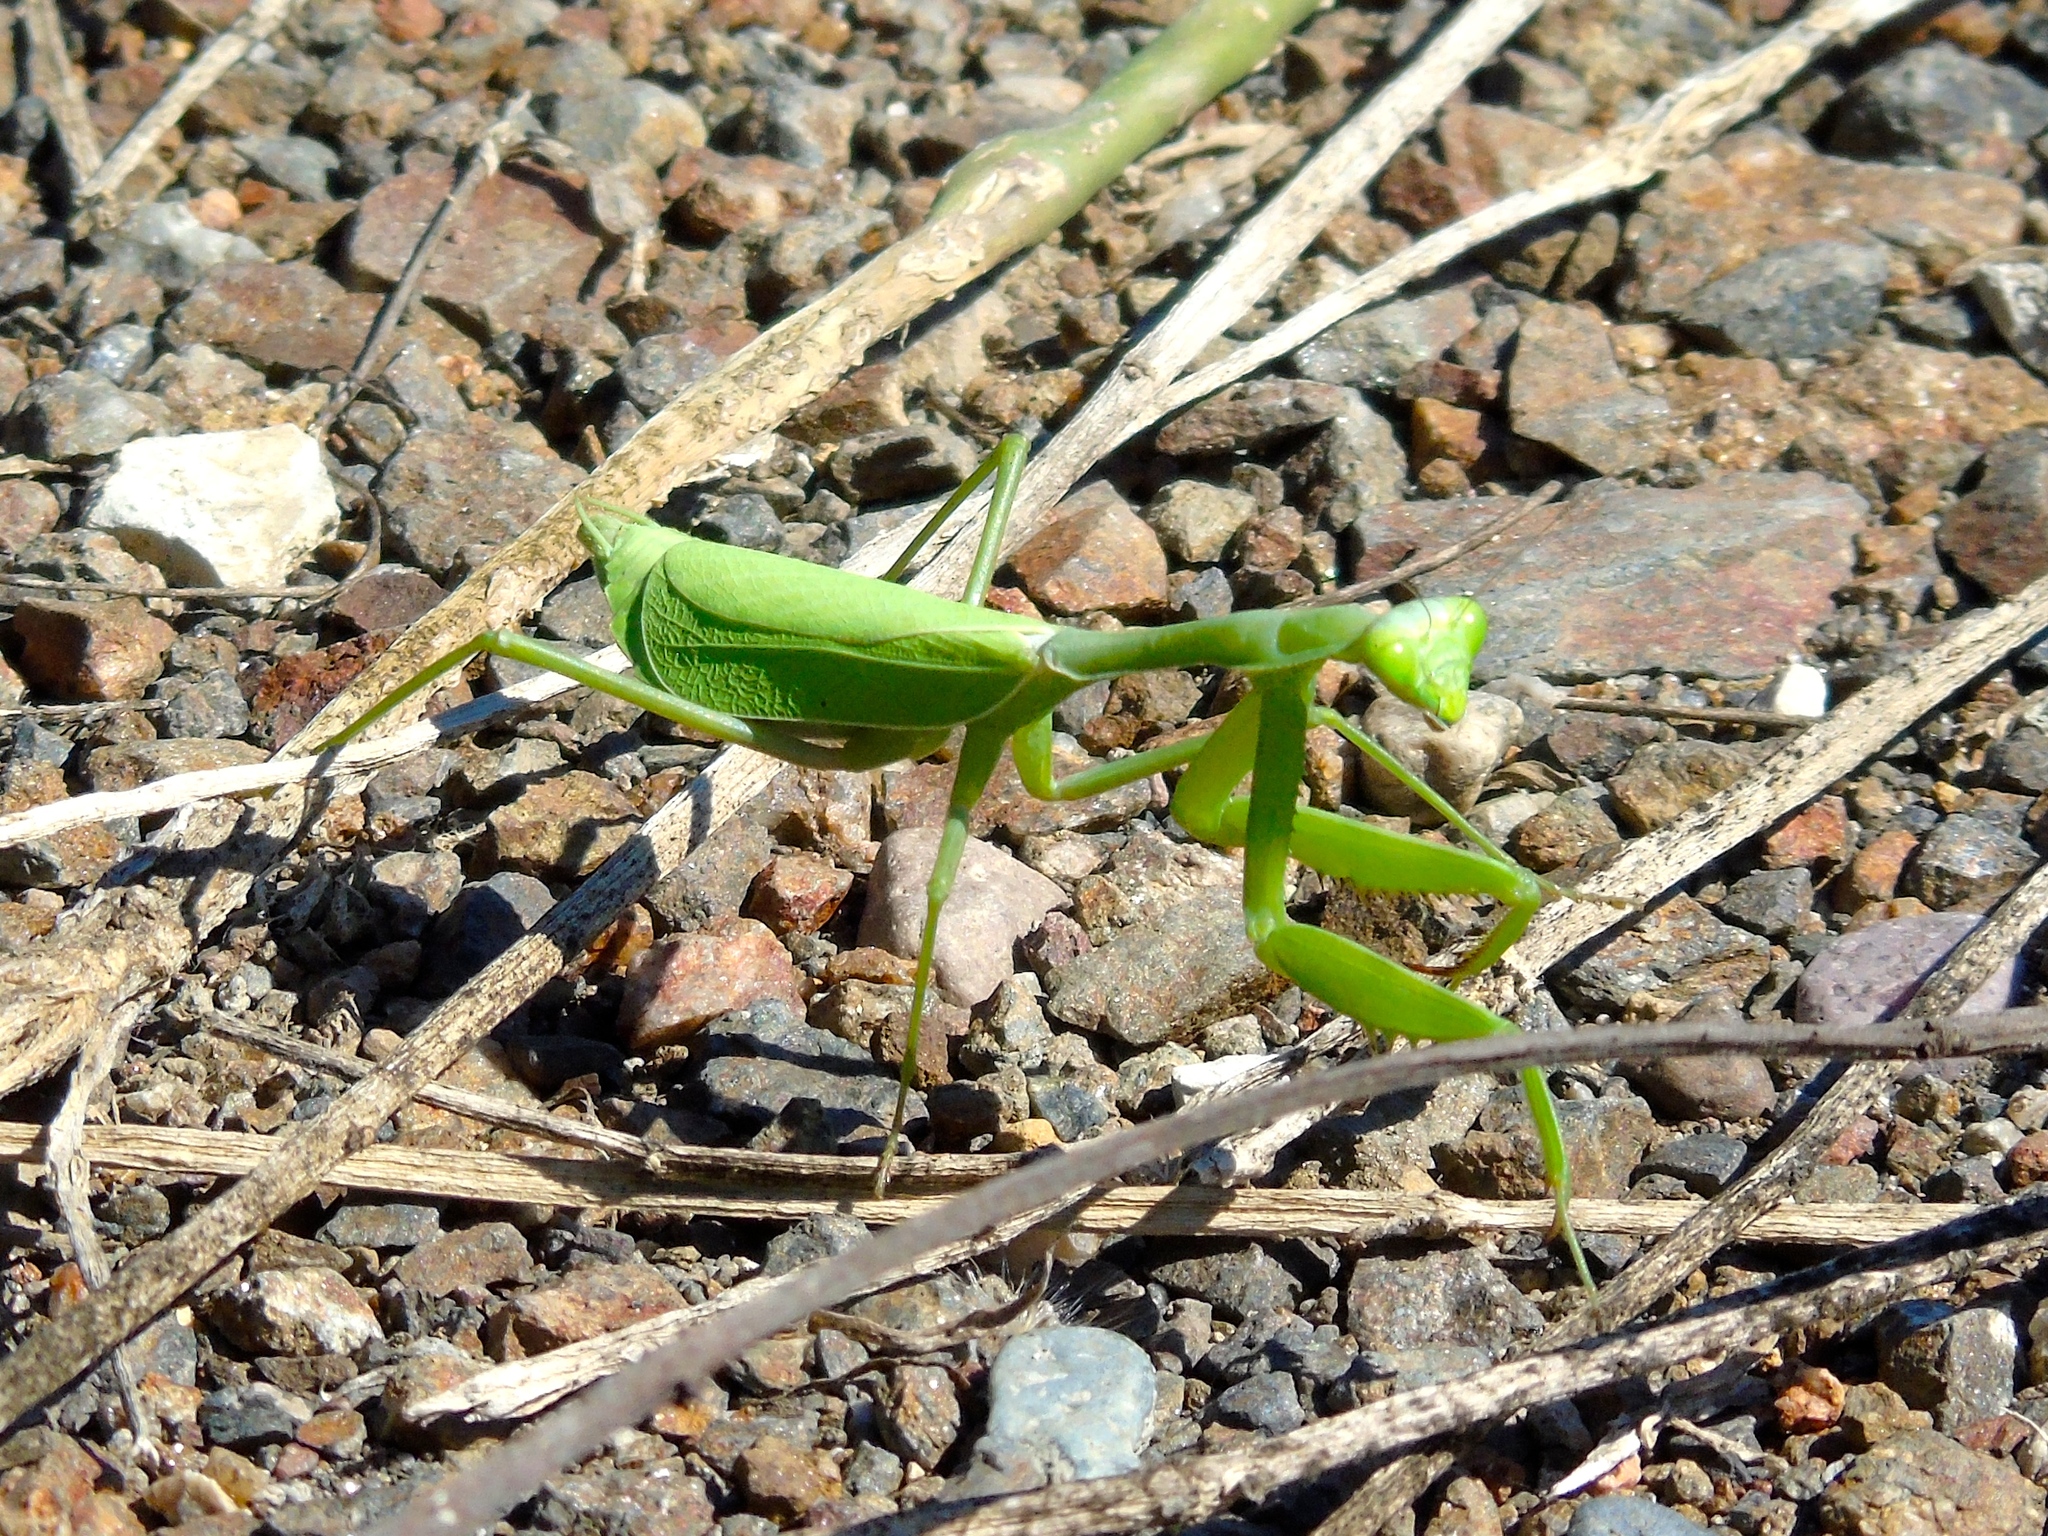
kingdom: Animalia
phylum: Arthropoda
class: Insecta
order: Mantodea
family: Mantidae
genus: Stagmomantis
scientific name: Stagmomantis limbata
